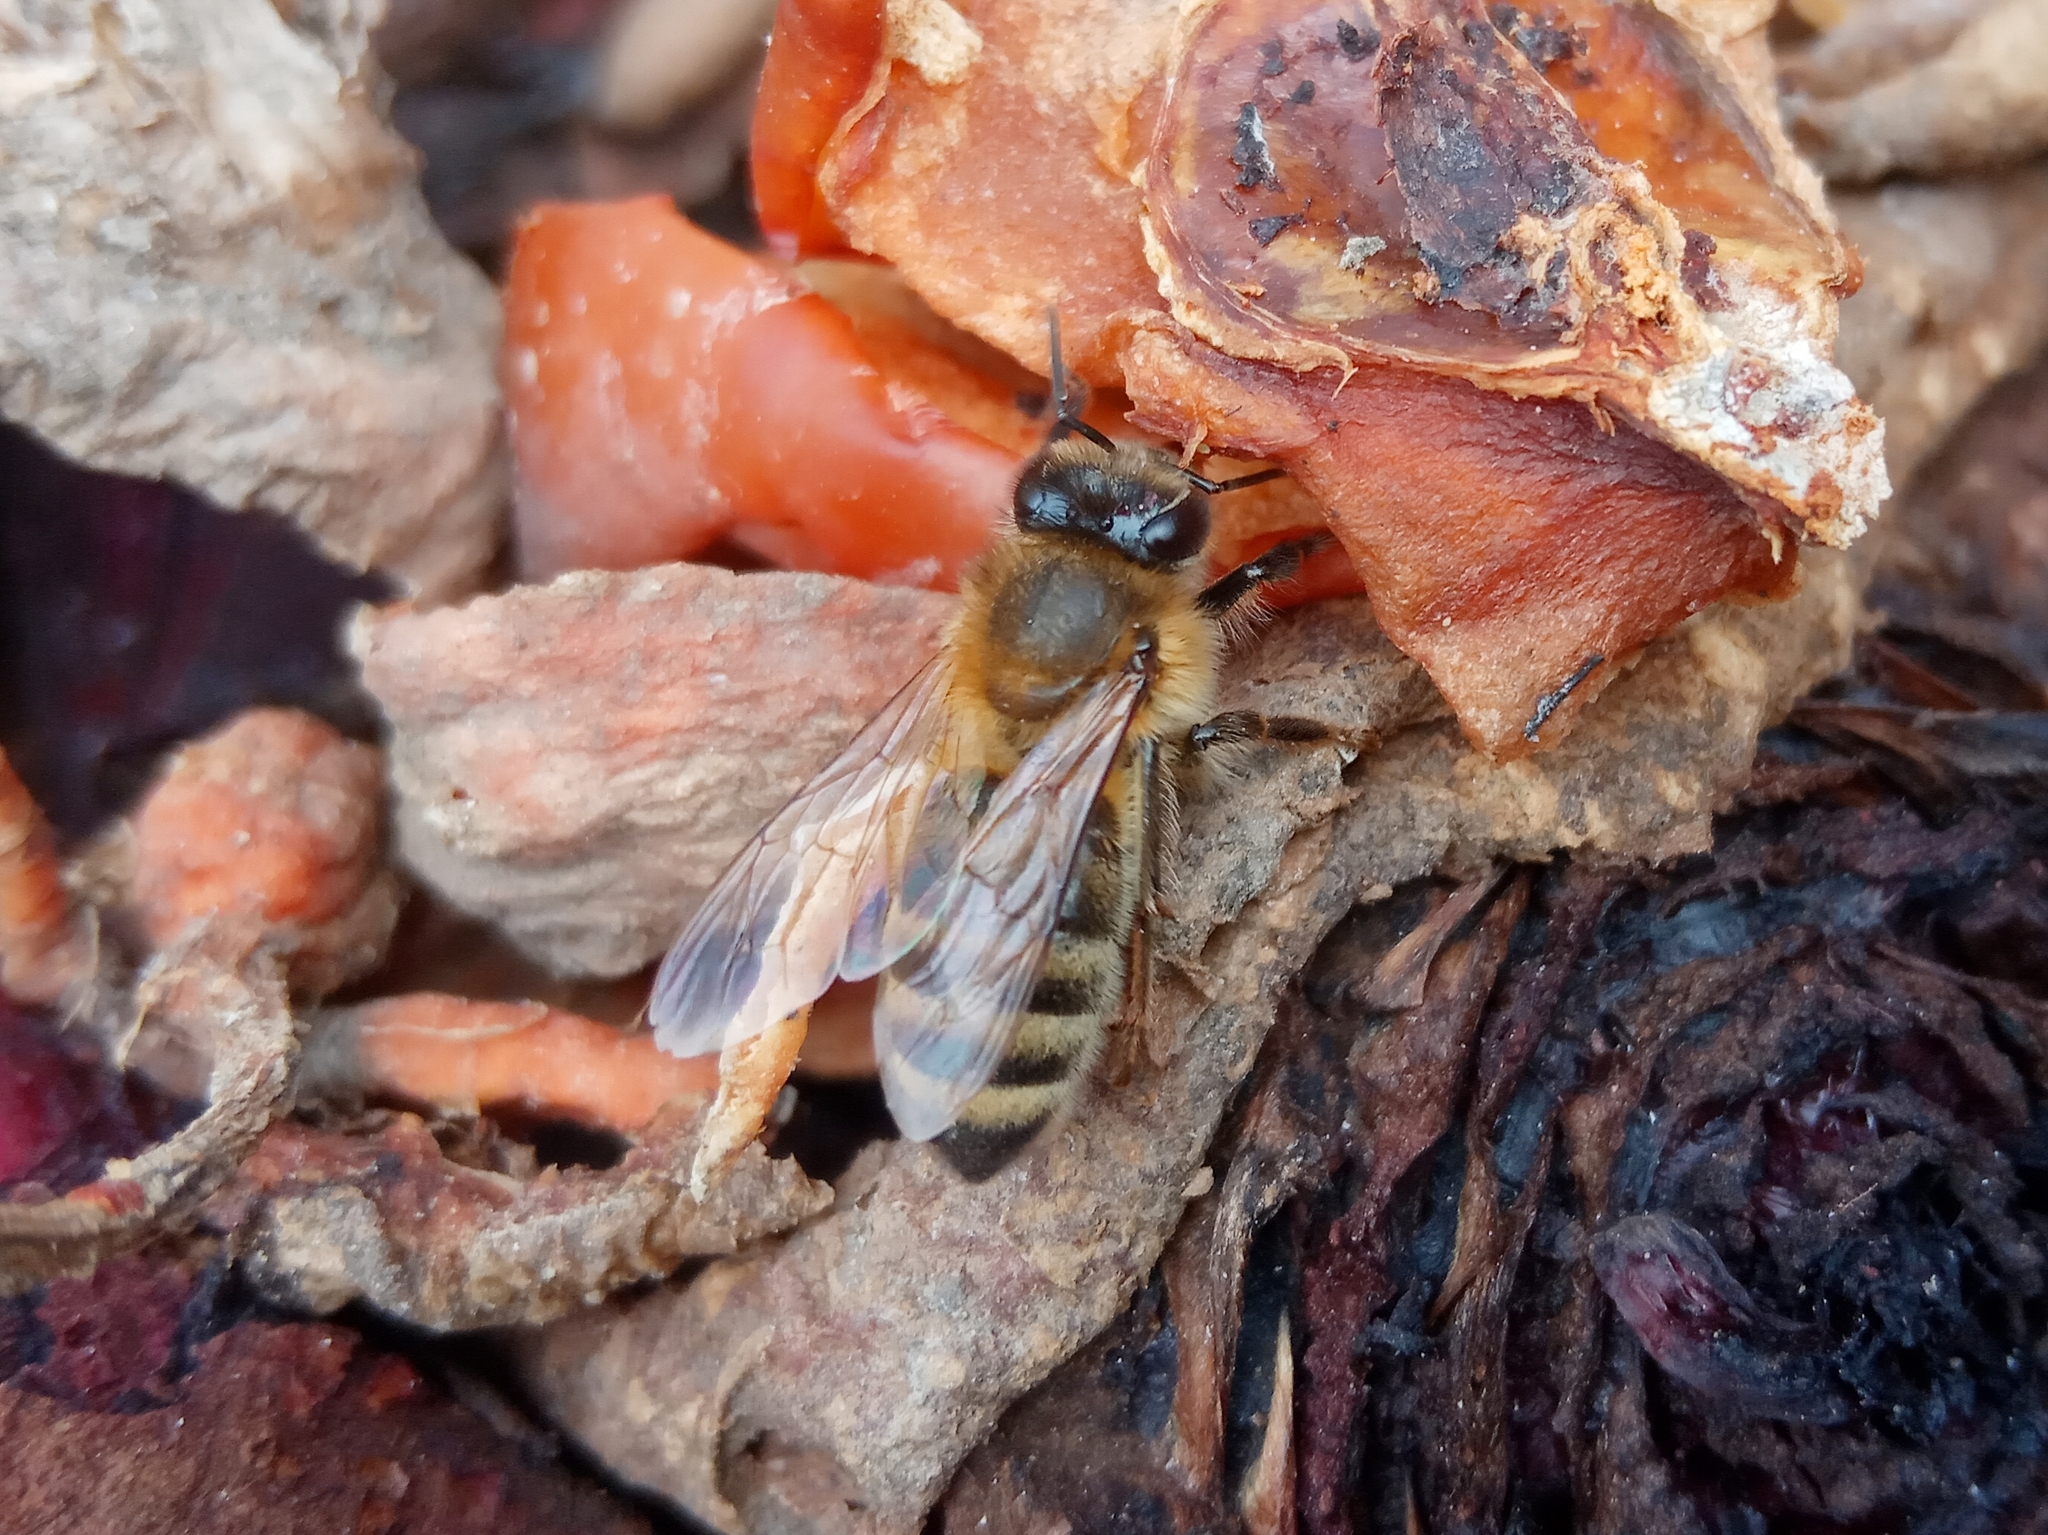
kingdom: Animalia
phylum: Arthropoda
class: Insecta
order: Hymenoptera
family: Apidae
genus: Apis
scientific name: Apis mellifera
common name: Honey bee
